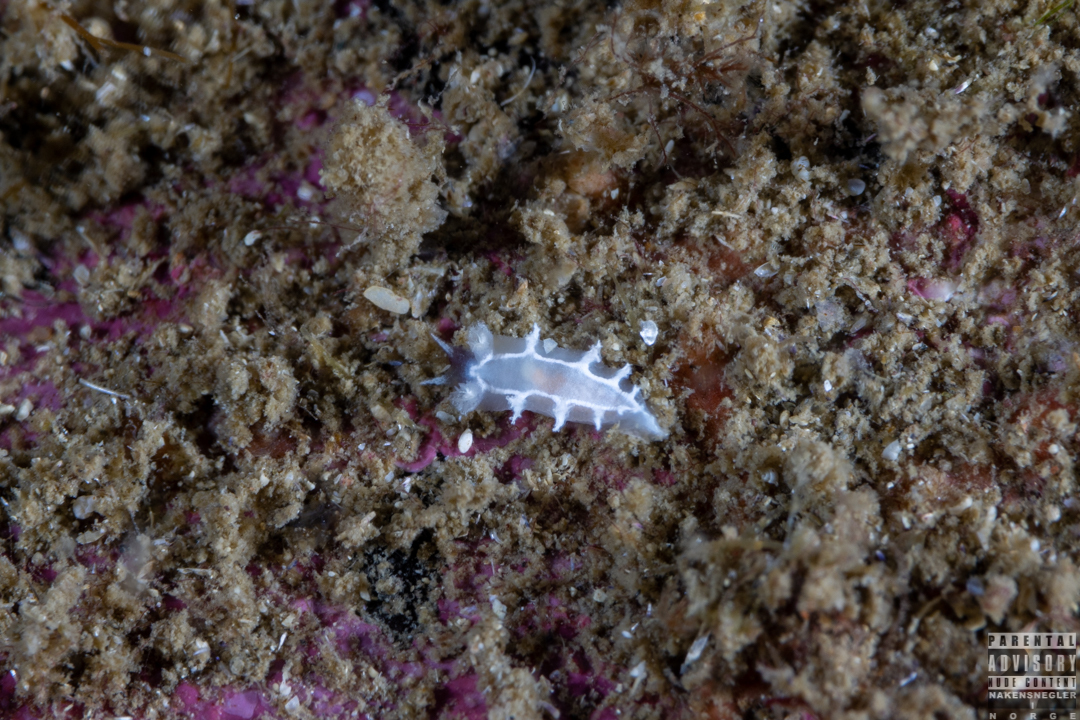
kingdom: Animalia
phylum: Mollusca
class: Gastropoda
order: Nudibranchia
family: Tritoniidae
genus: Duvaucelia
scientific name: Duvaucelia lineata
